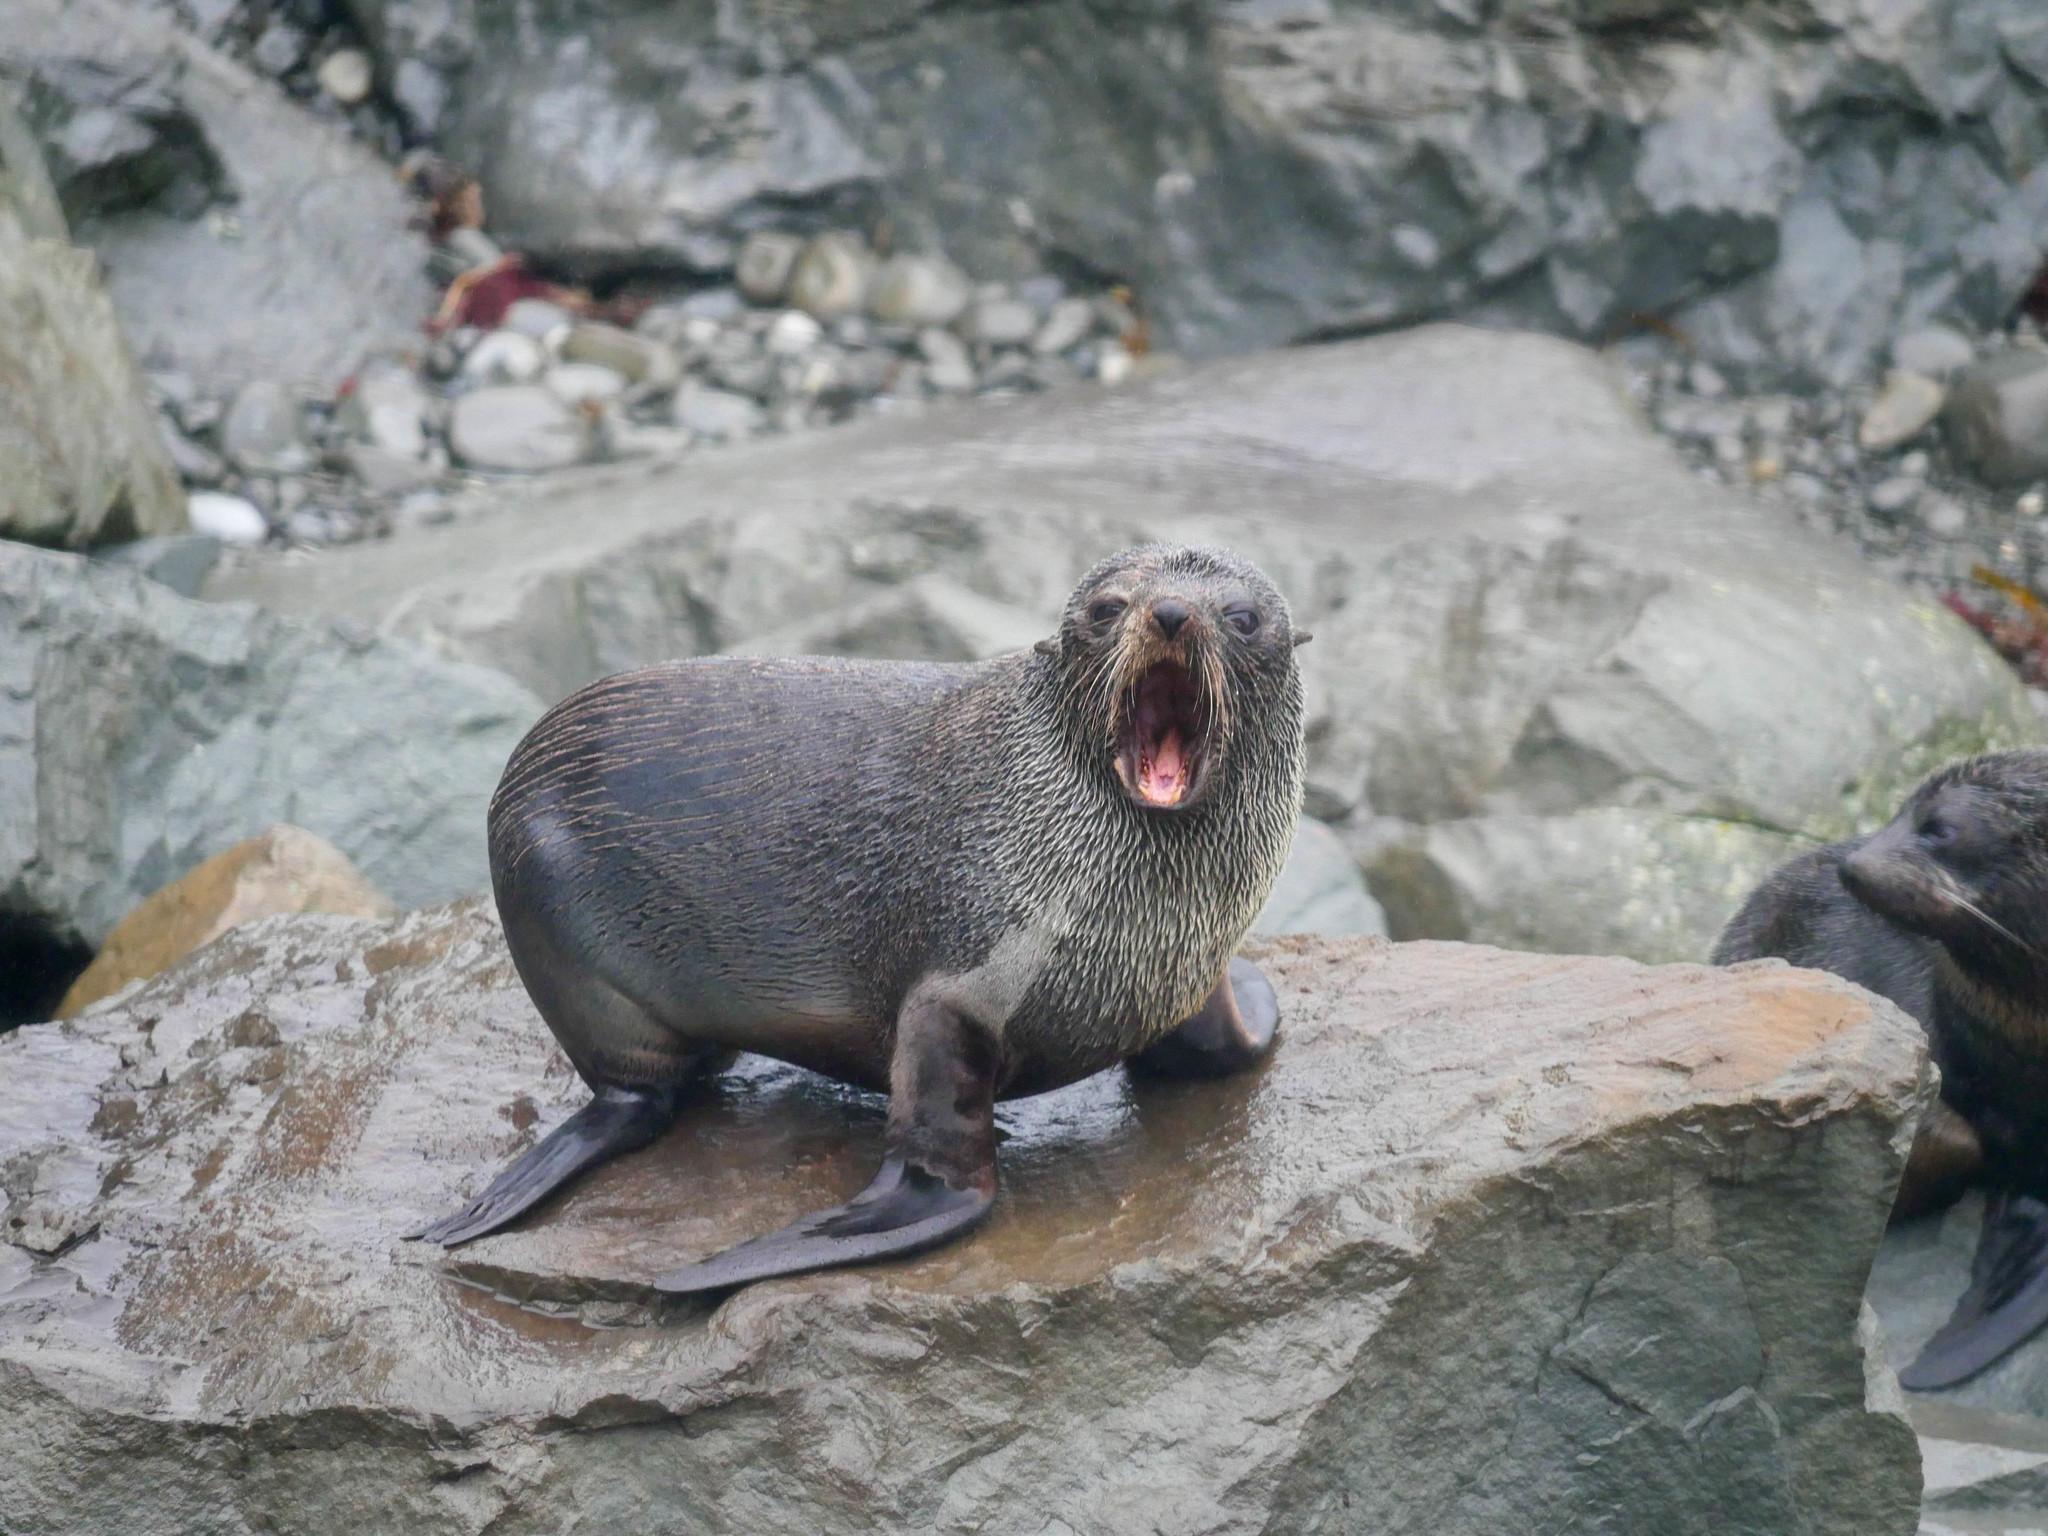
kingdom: Animalia
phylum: Chordata
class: Mammalia
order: Carnivora
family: Otariidae
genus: Arctocephalus
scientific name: Arctocephalus forsteri
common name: New zealand fur seal
